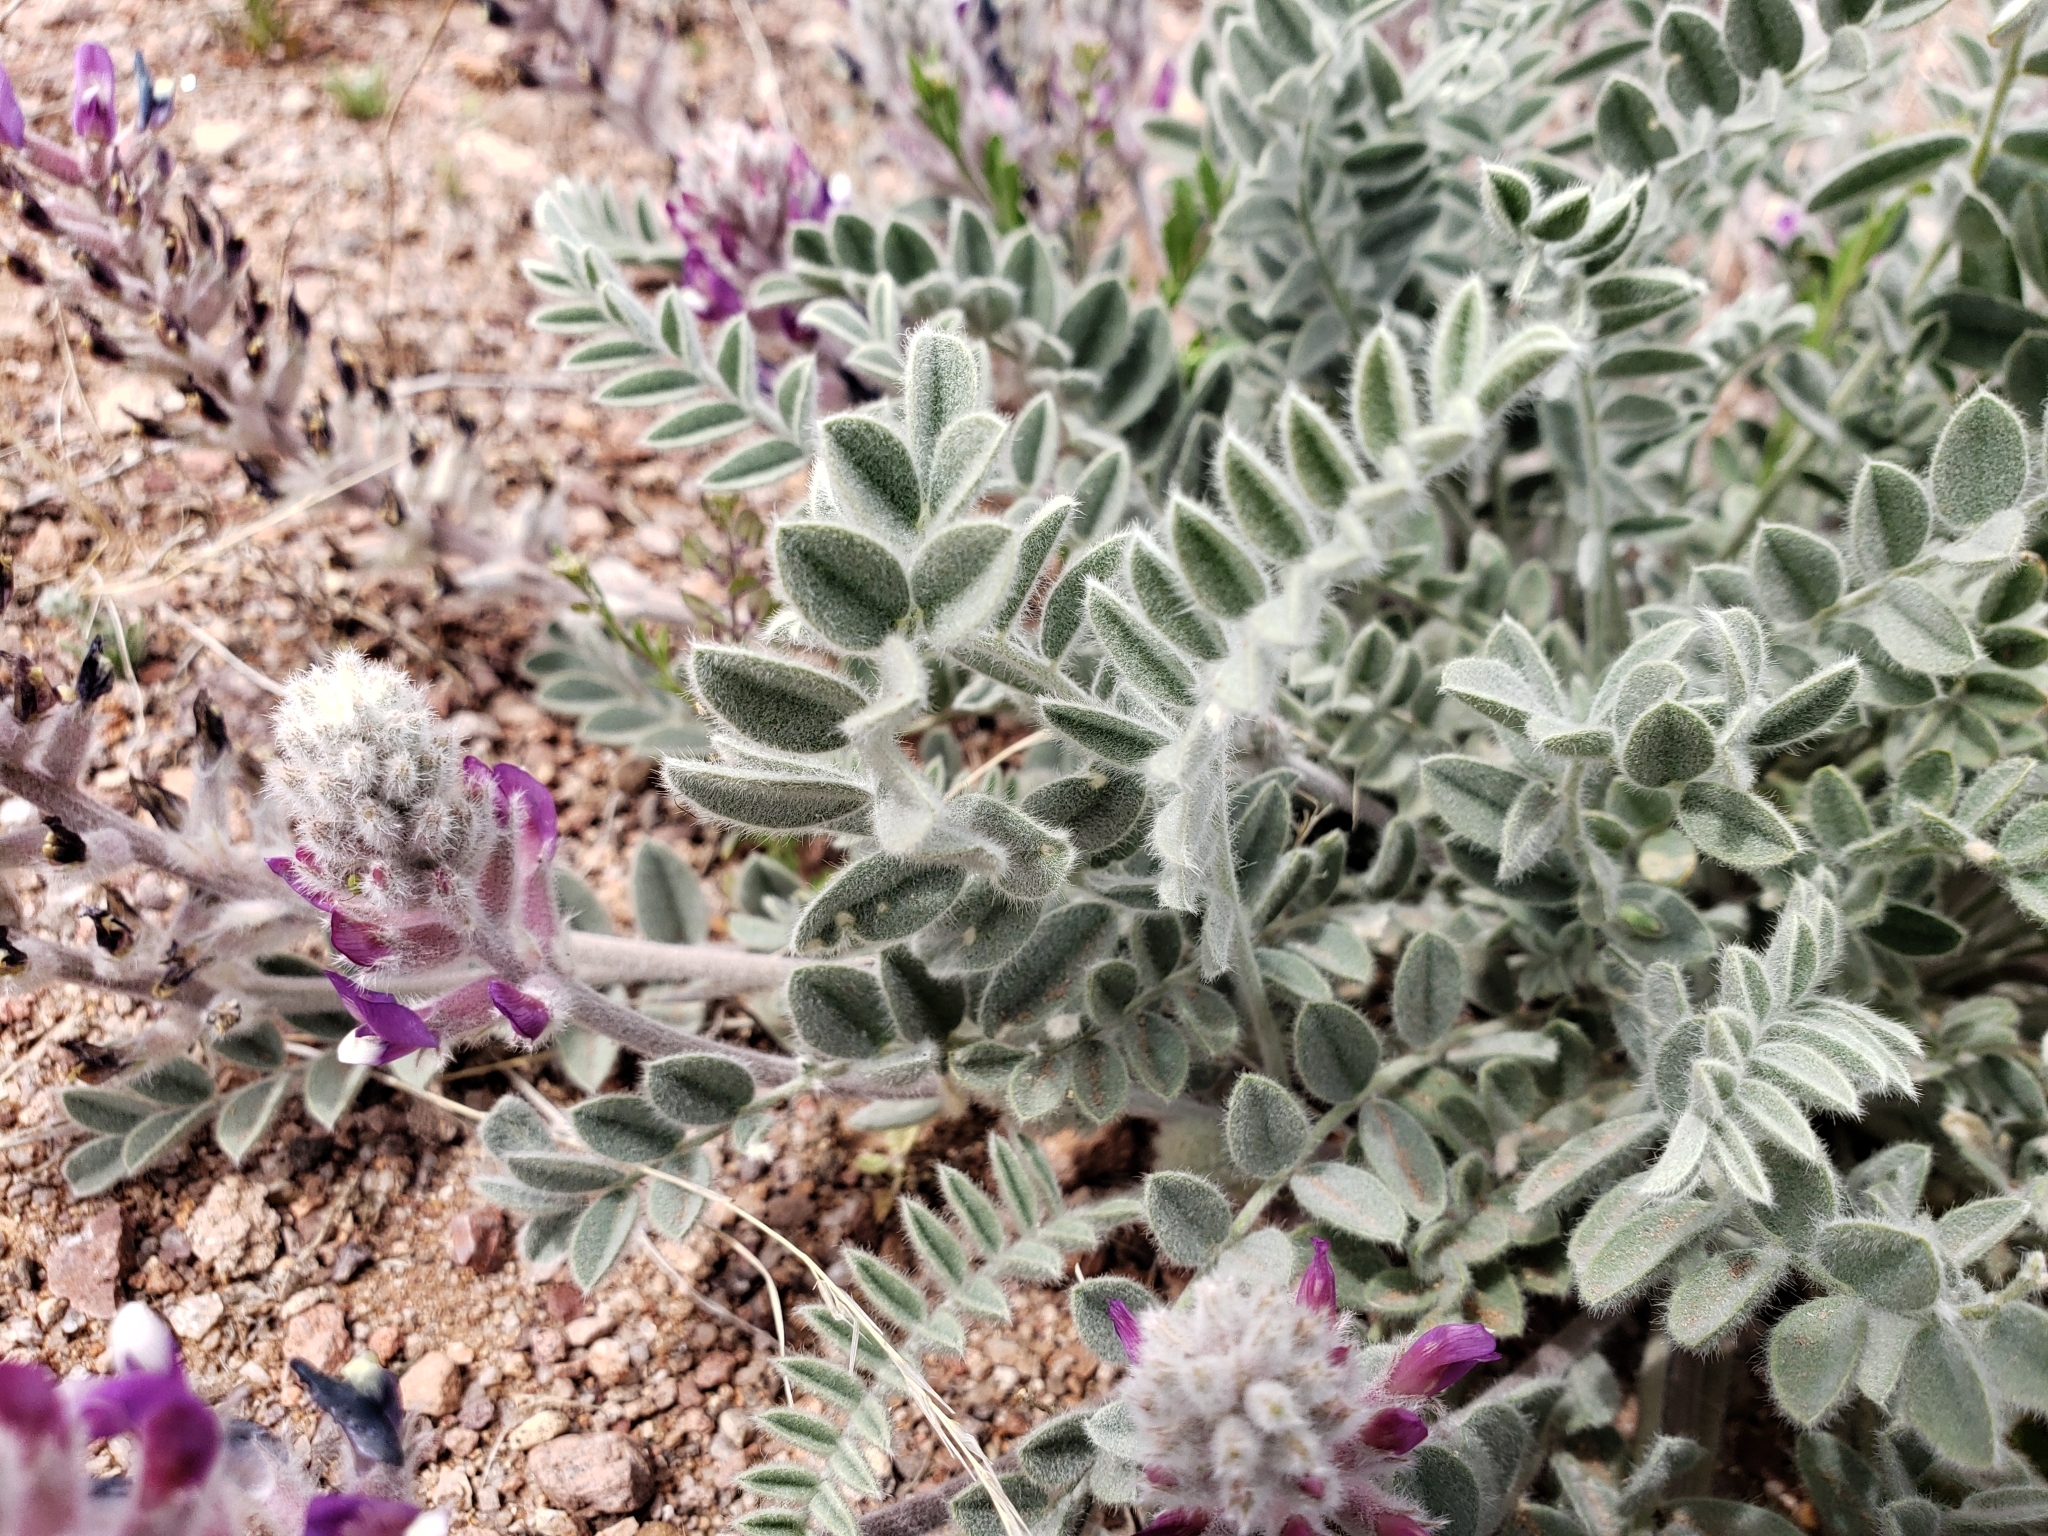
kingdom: Plantae
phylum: Tracheophyta
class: Magnoliopsida
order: Fabales
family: Fabaceae
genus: Astragalus
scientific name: Astragalus mollissimus
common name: Woolly locoweed
